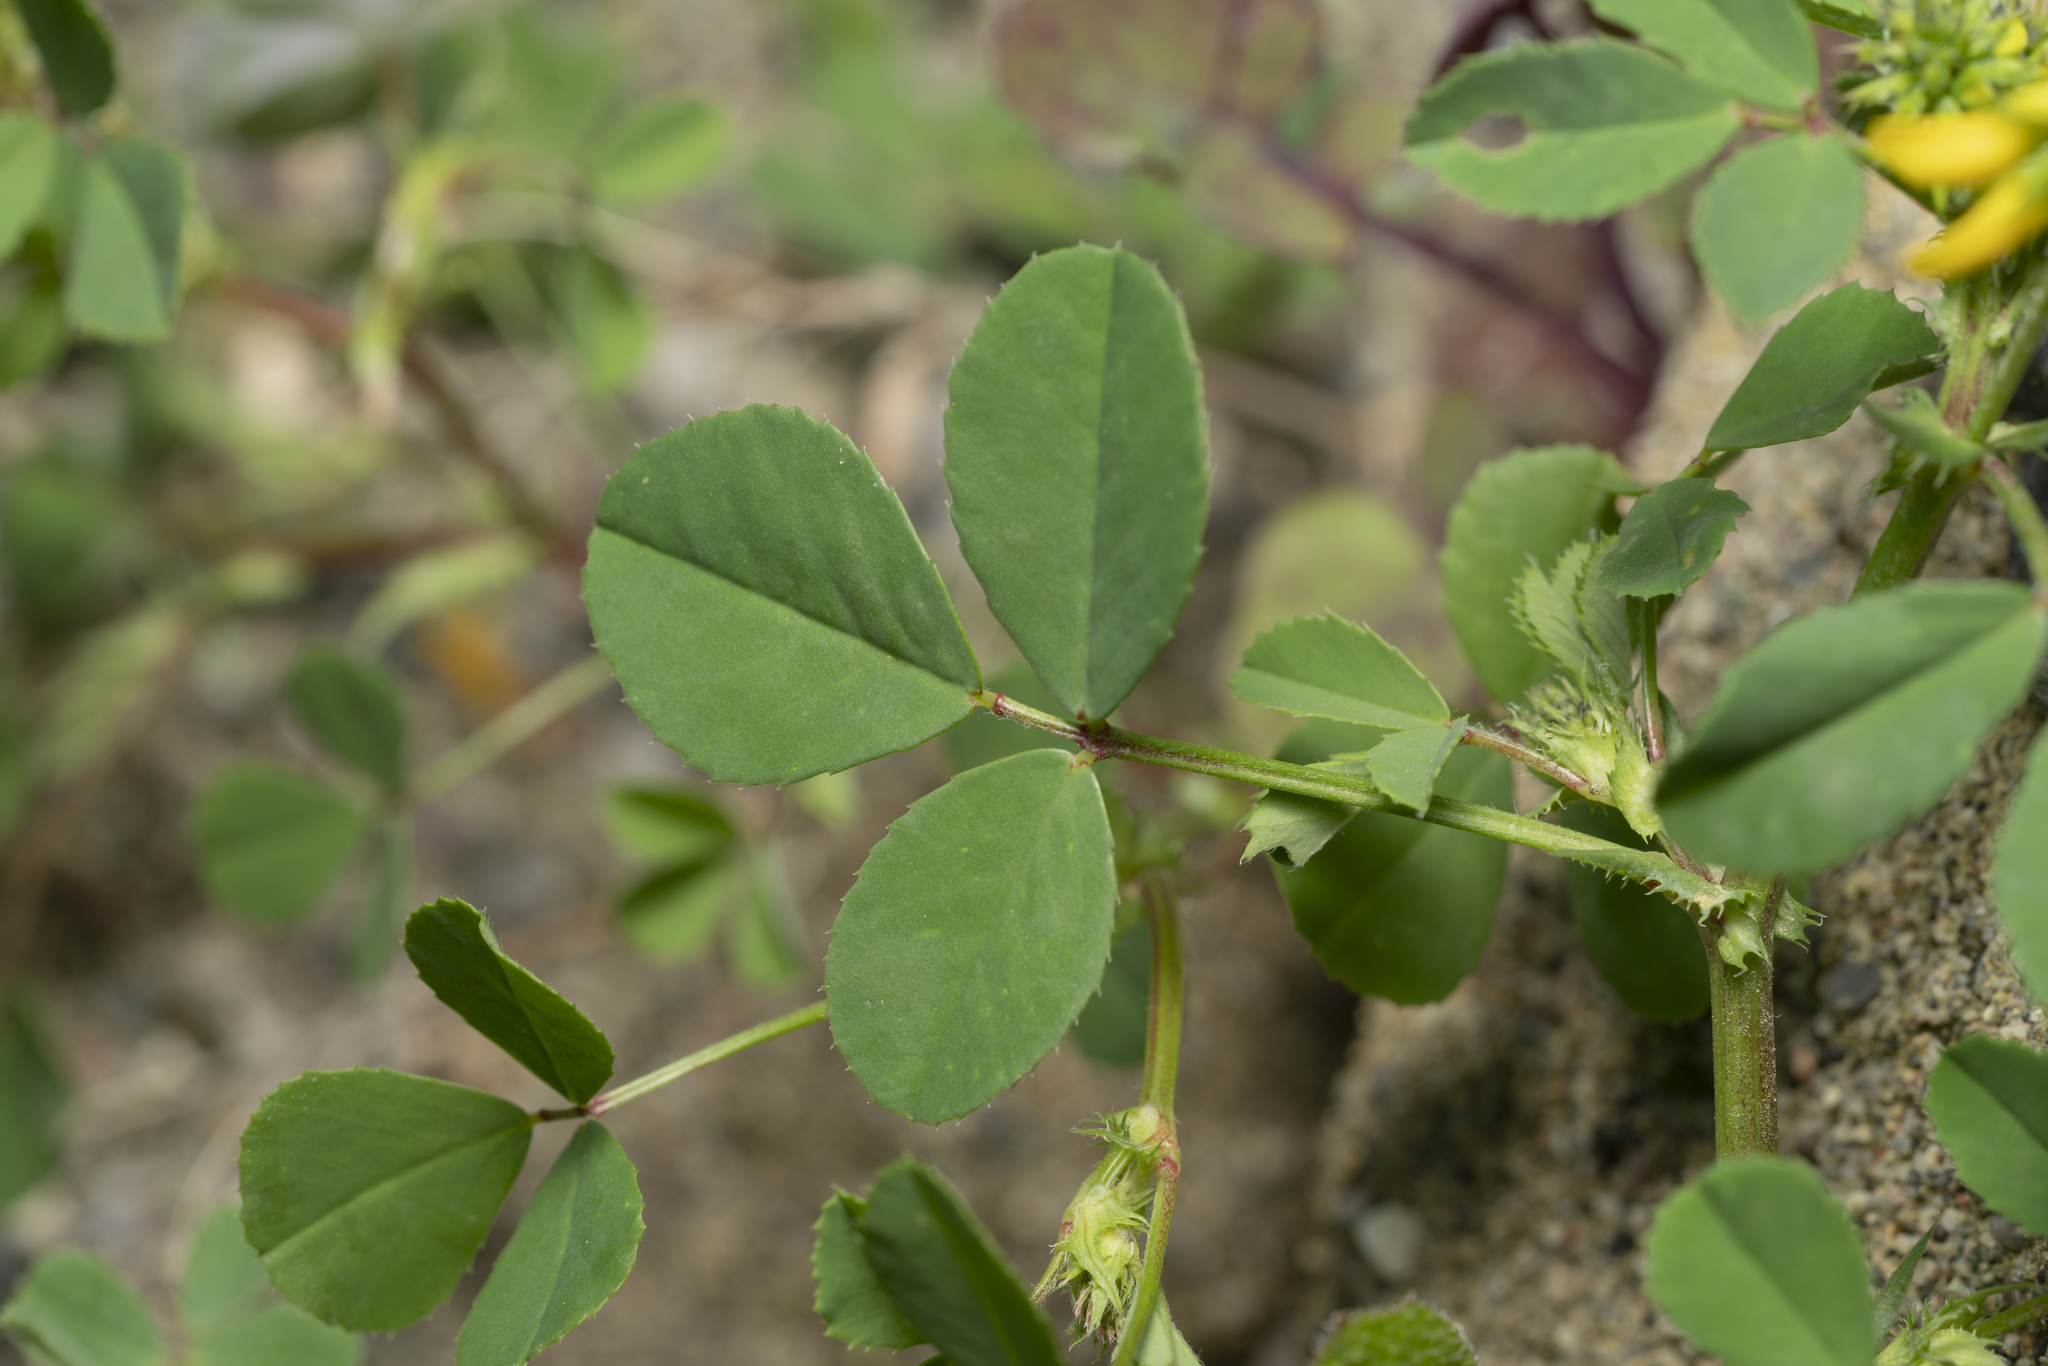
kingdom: Plantae
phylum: Tracheophyta
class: Magnoliopsida
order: Fabales
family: Fabaceae
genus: Trigonella
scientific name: Trigonella balansae
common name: Sickle-fruited fenugreek
